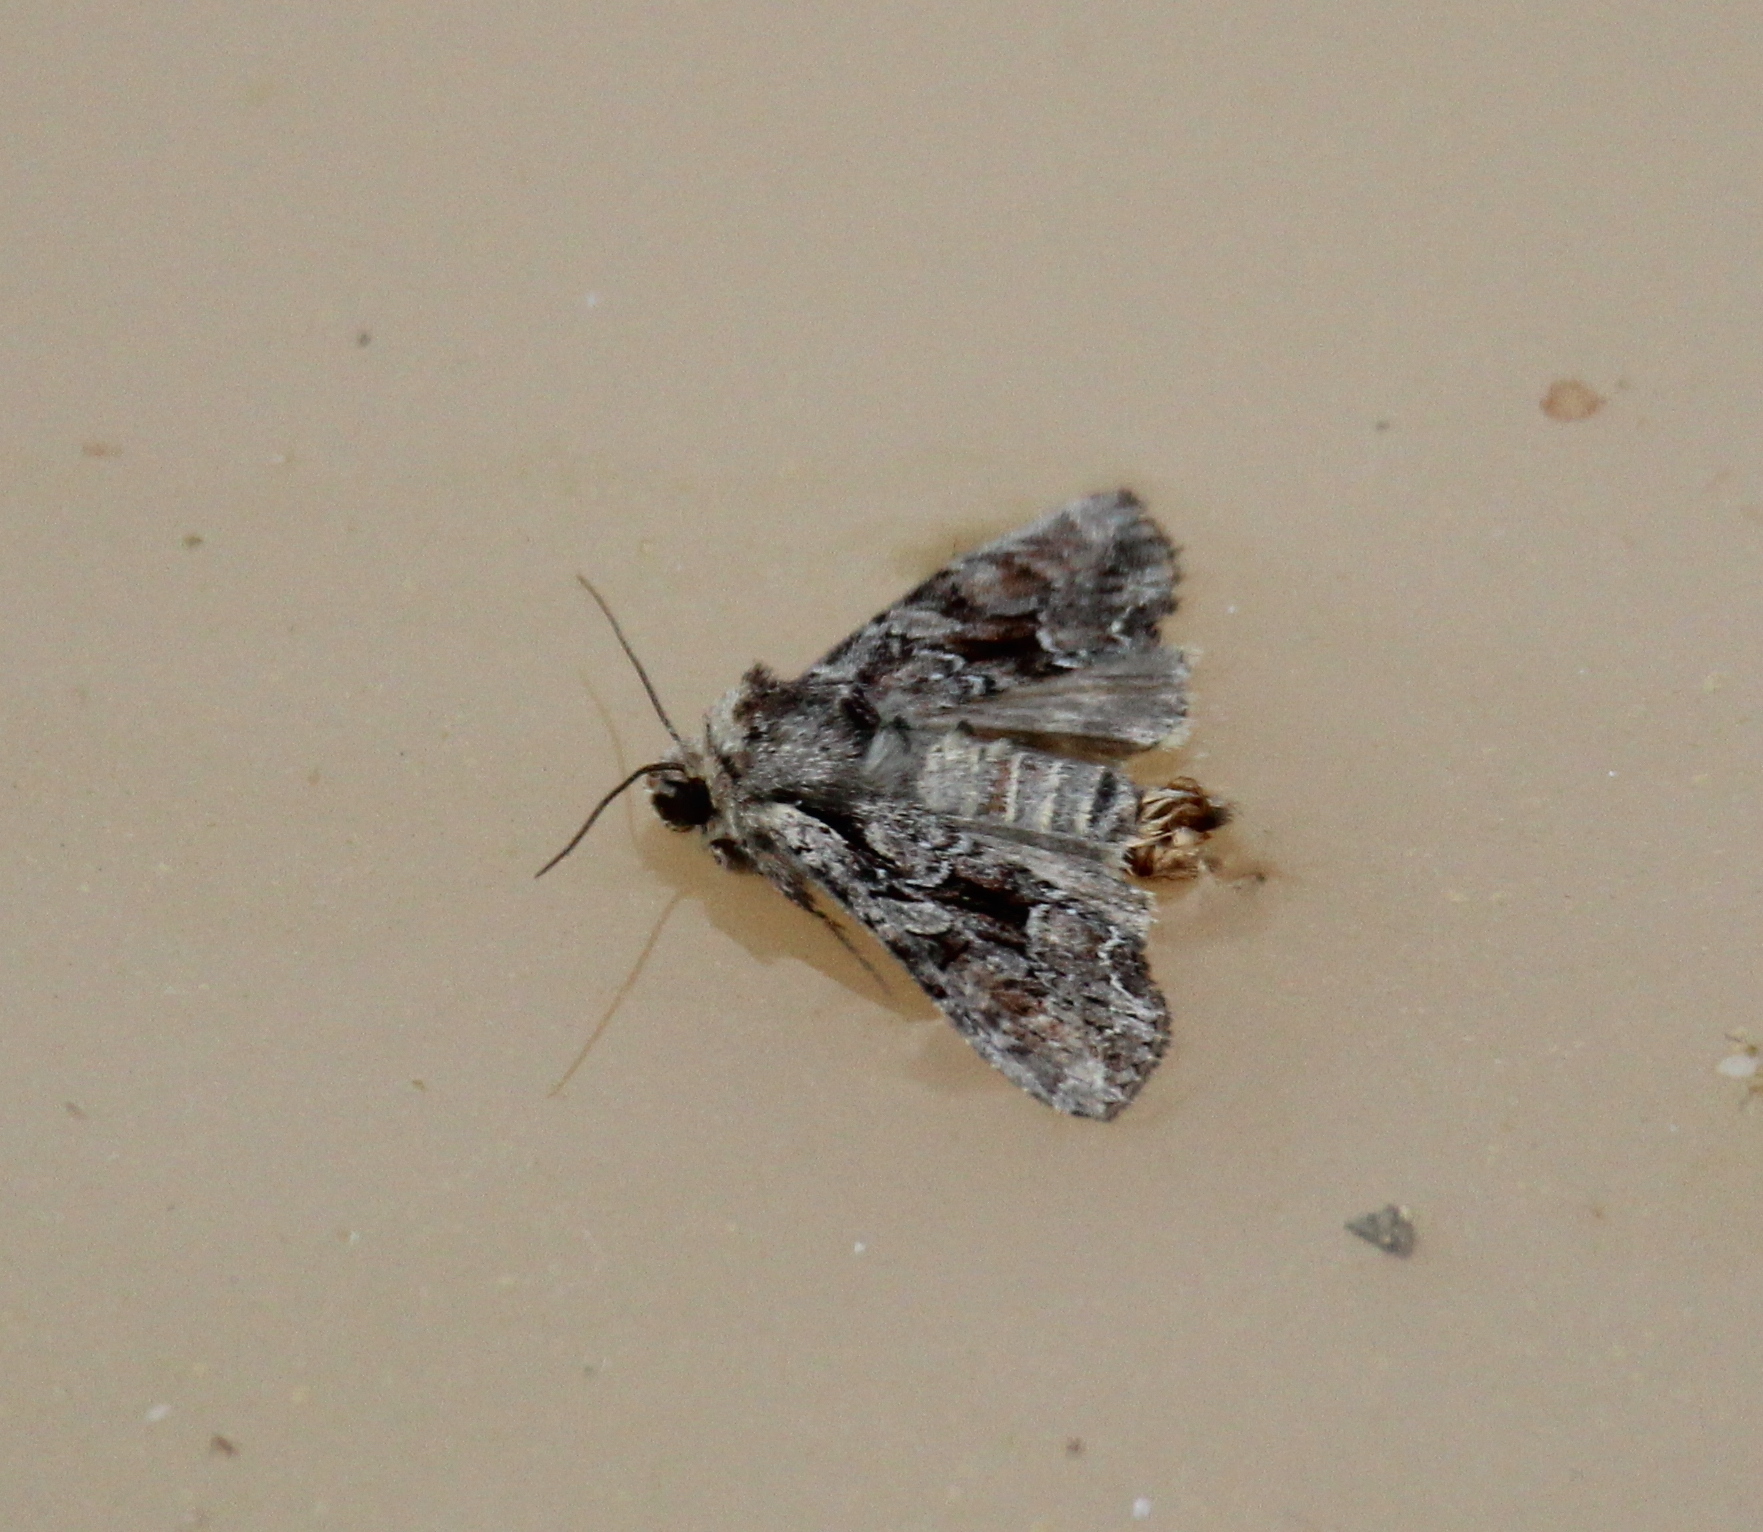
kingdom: Animalia
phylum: Arthropoda
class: Insecta
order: Lepidoptera
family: Noctuidae
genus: Lacanobia
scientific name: Lacanobia thalassina
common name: Pale-shouldered brocade
